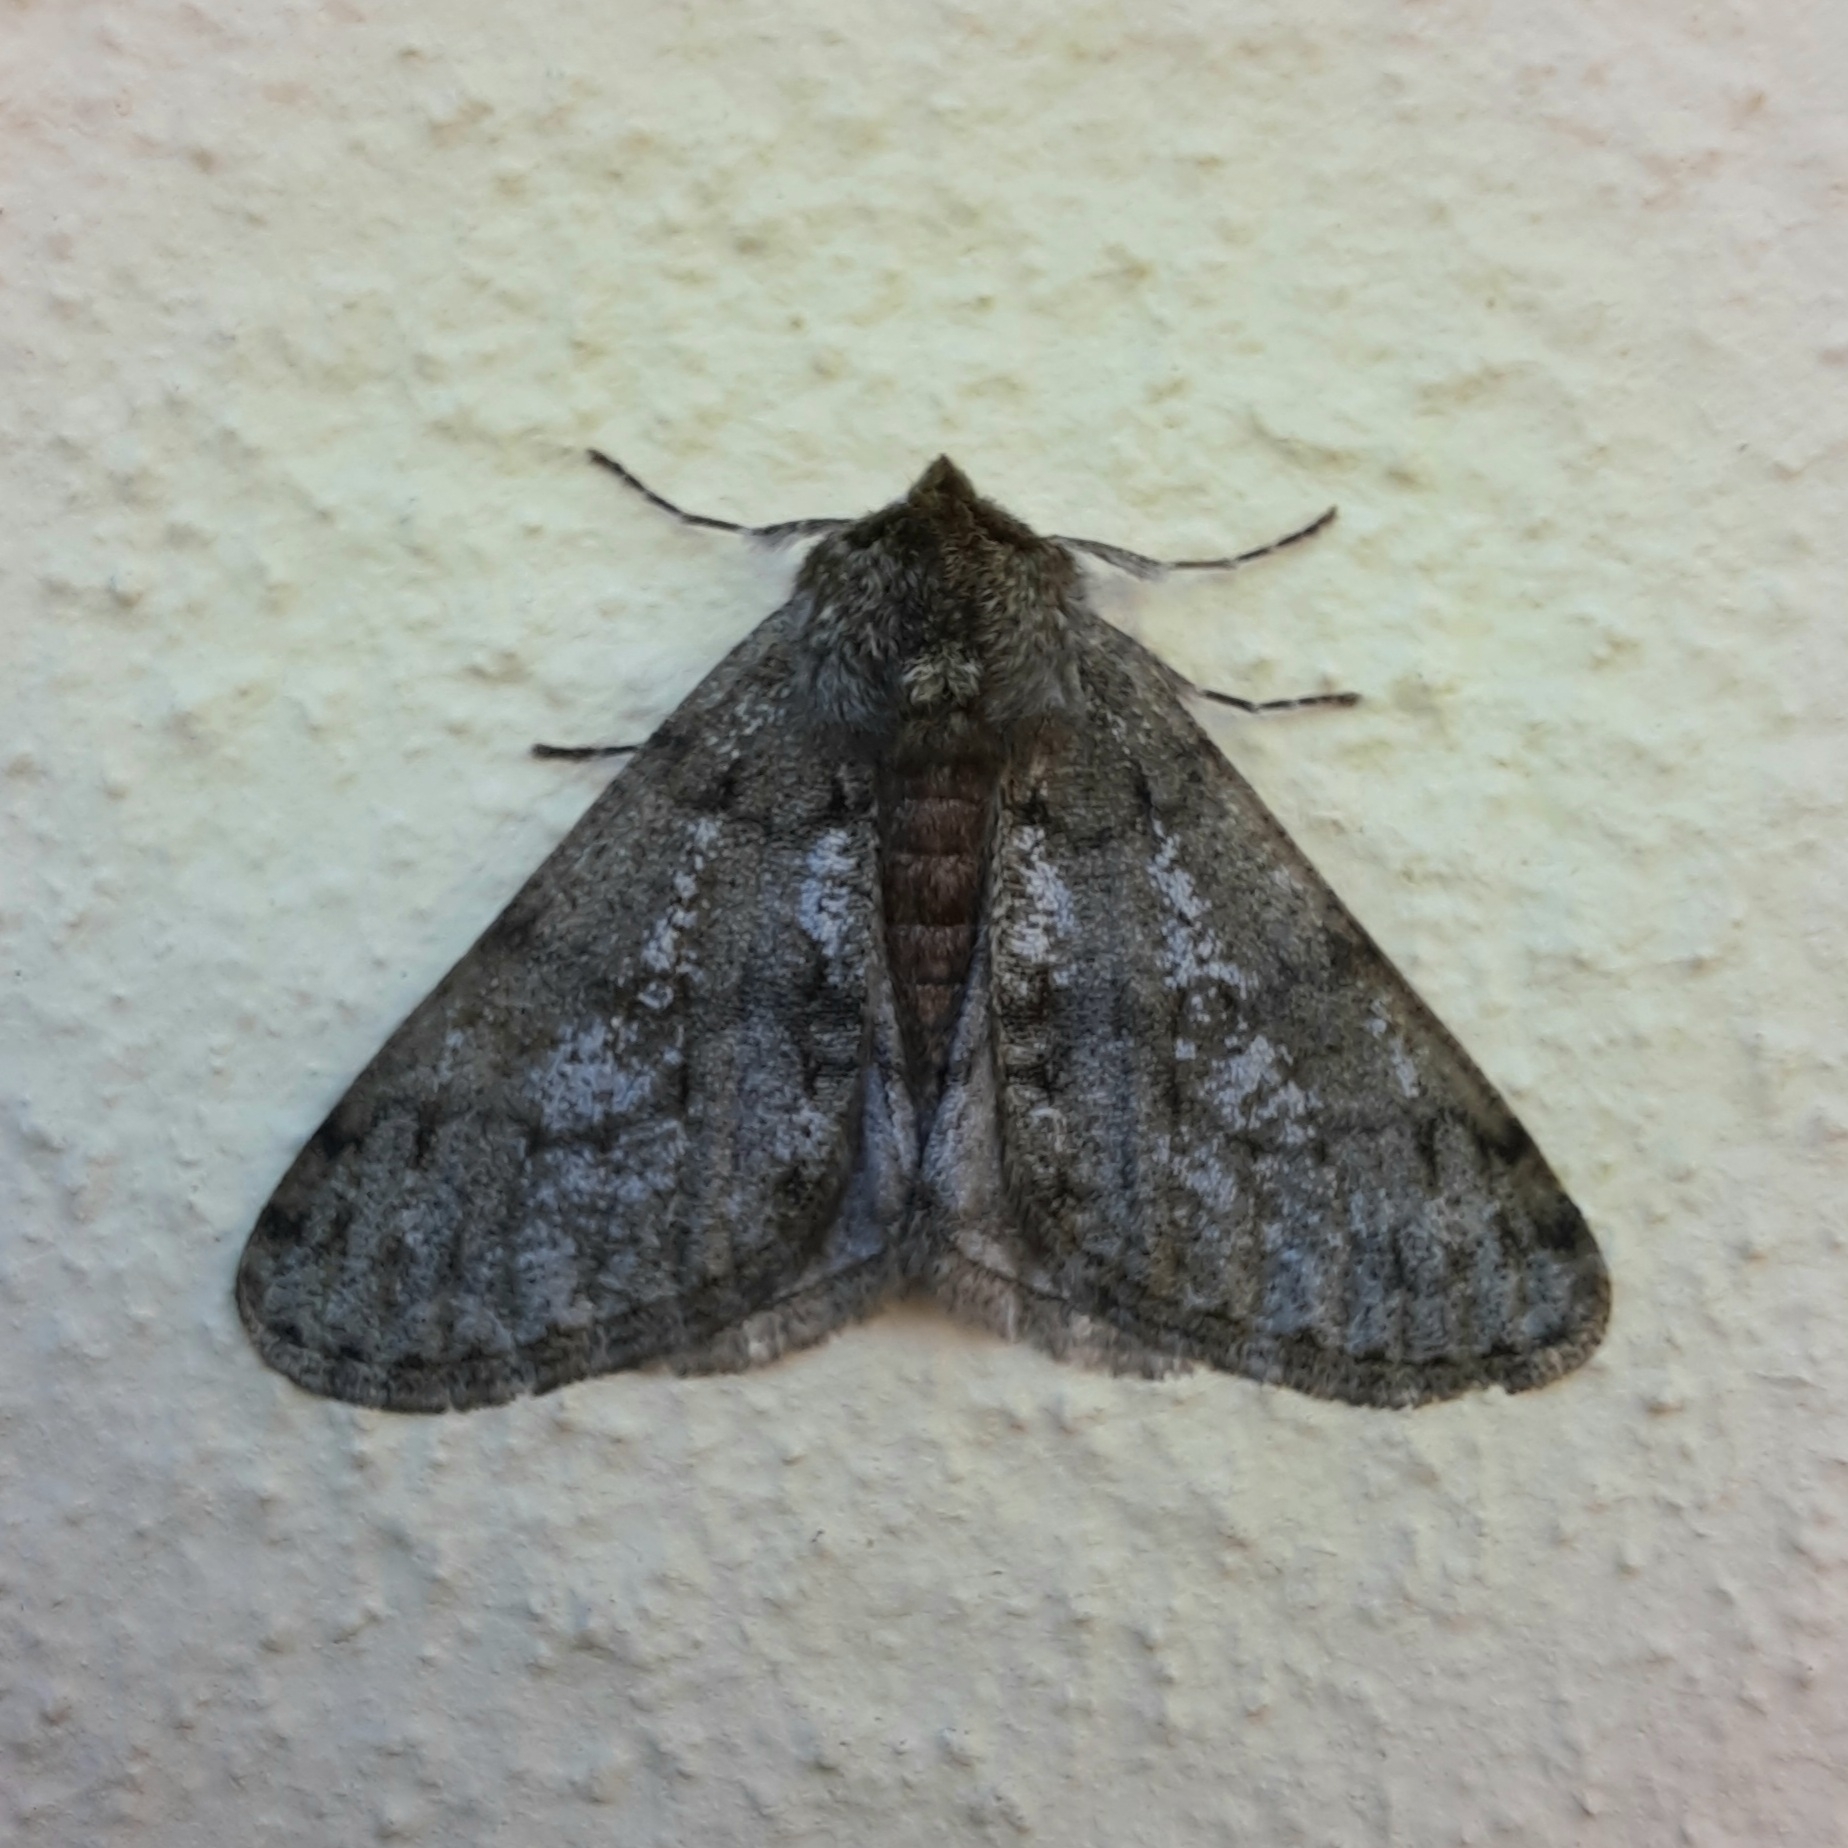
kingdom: Animalia
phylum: Arthropoda
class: Insecta
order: Lepidoptera
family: Geometridae
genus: Phigalia
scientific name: Phigalia pilosaria
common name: Pale brindled beauty
